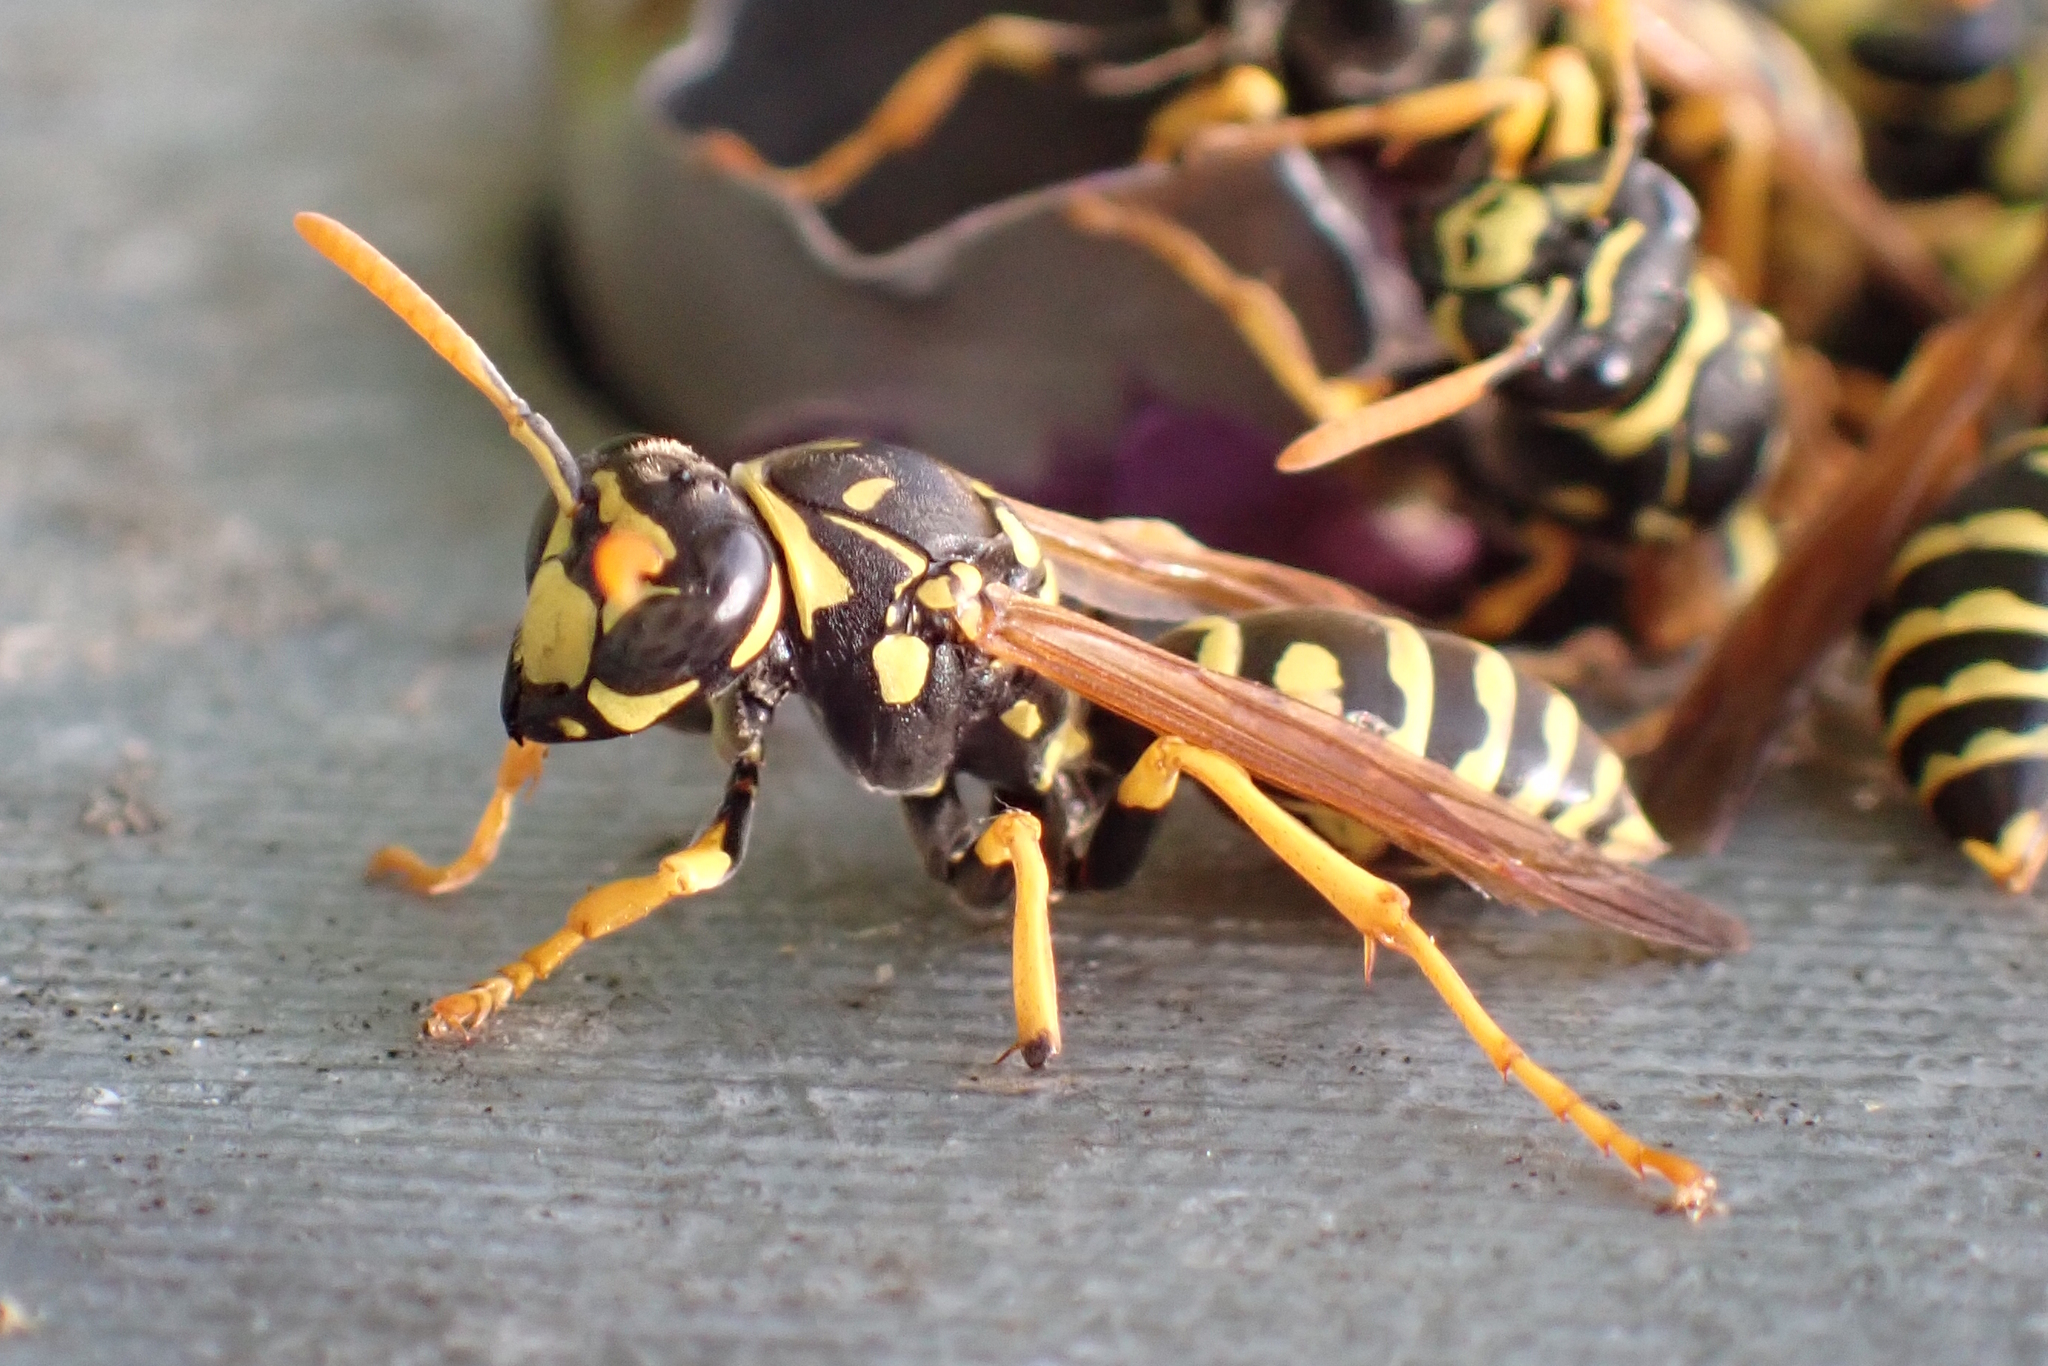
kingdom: Animalia
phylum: Arthropoda
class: Insecta
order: Hymenoptera
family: Eumenidae
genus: Polistes
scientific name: Polistes dominula
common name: Paper wasp
